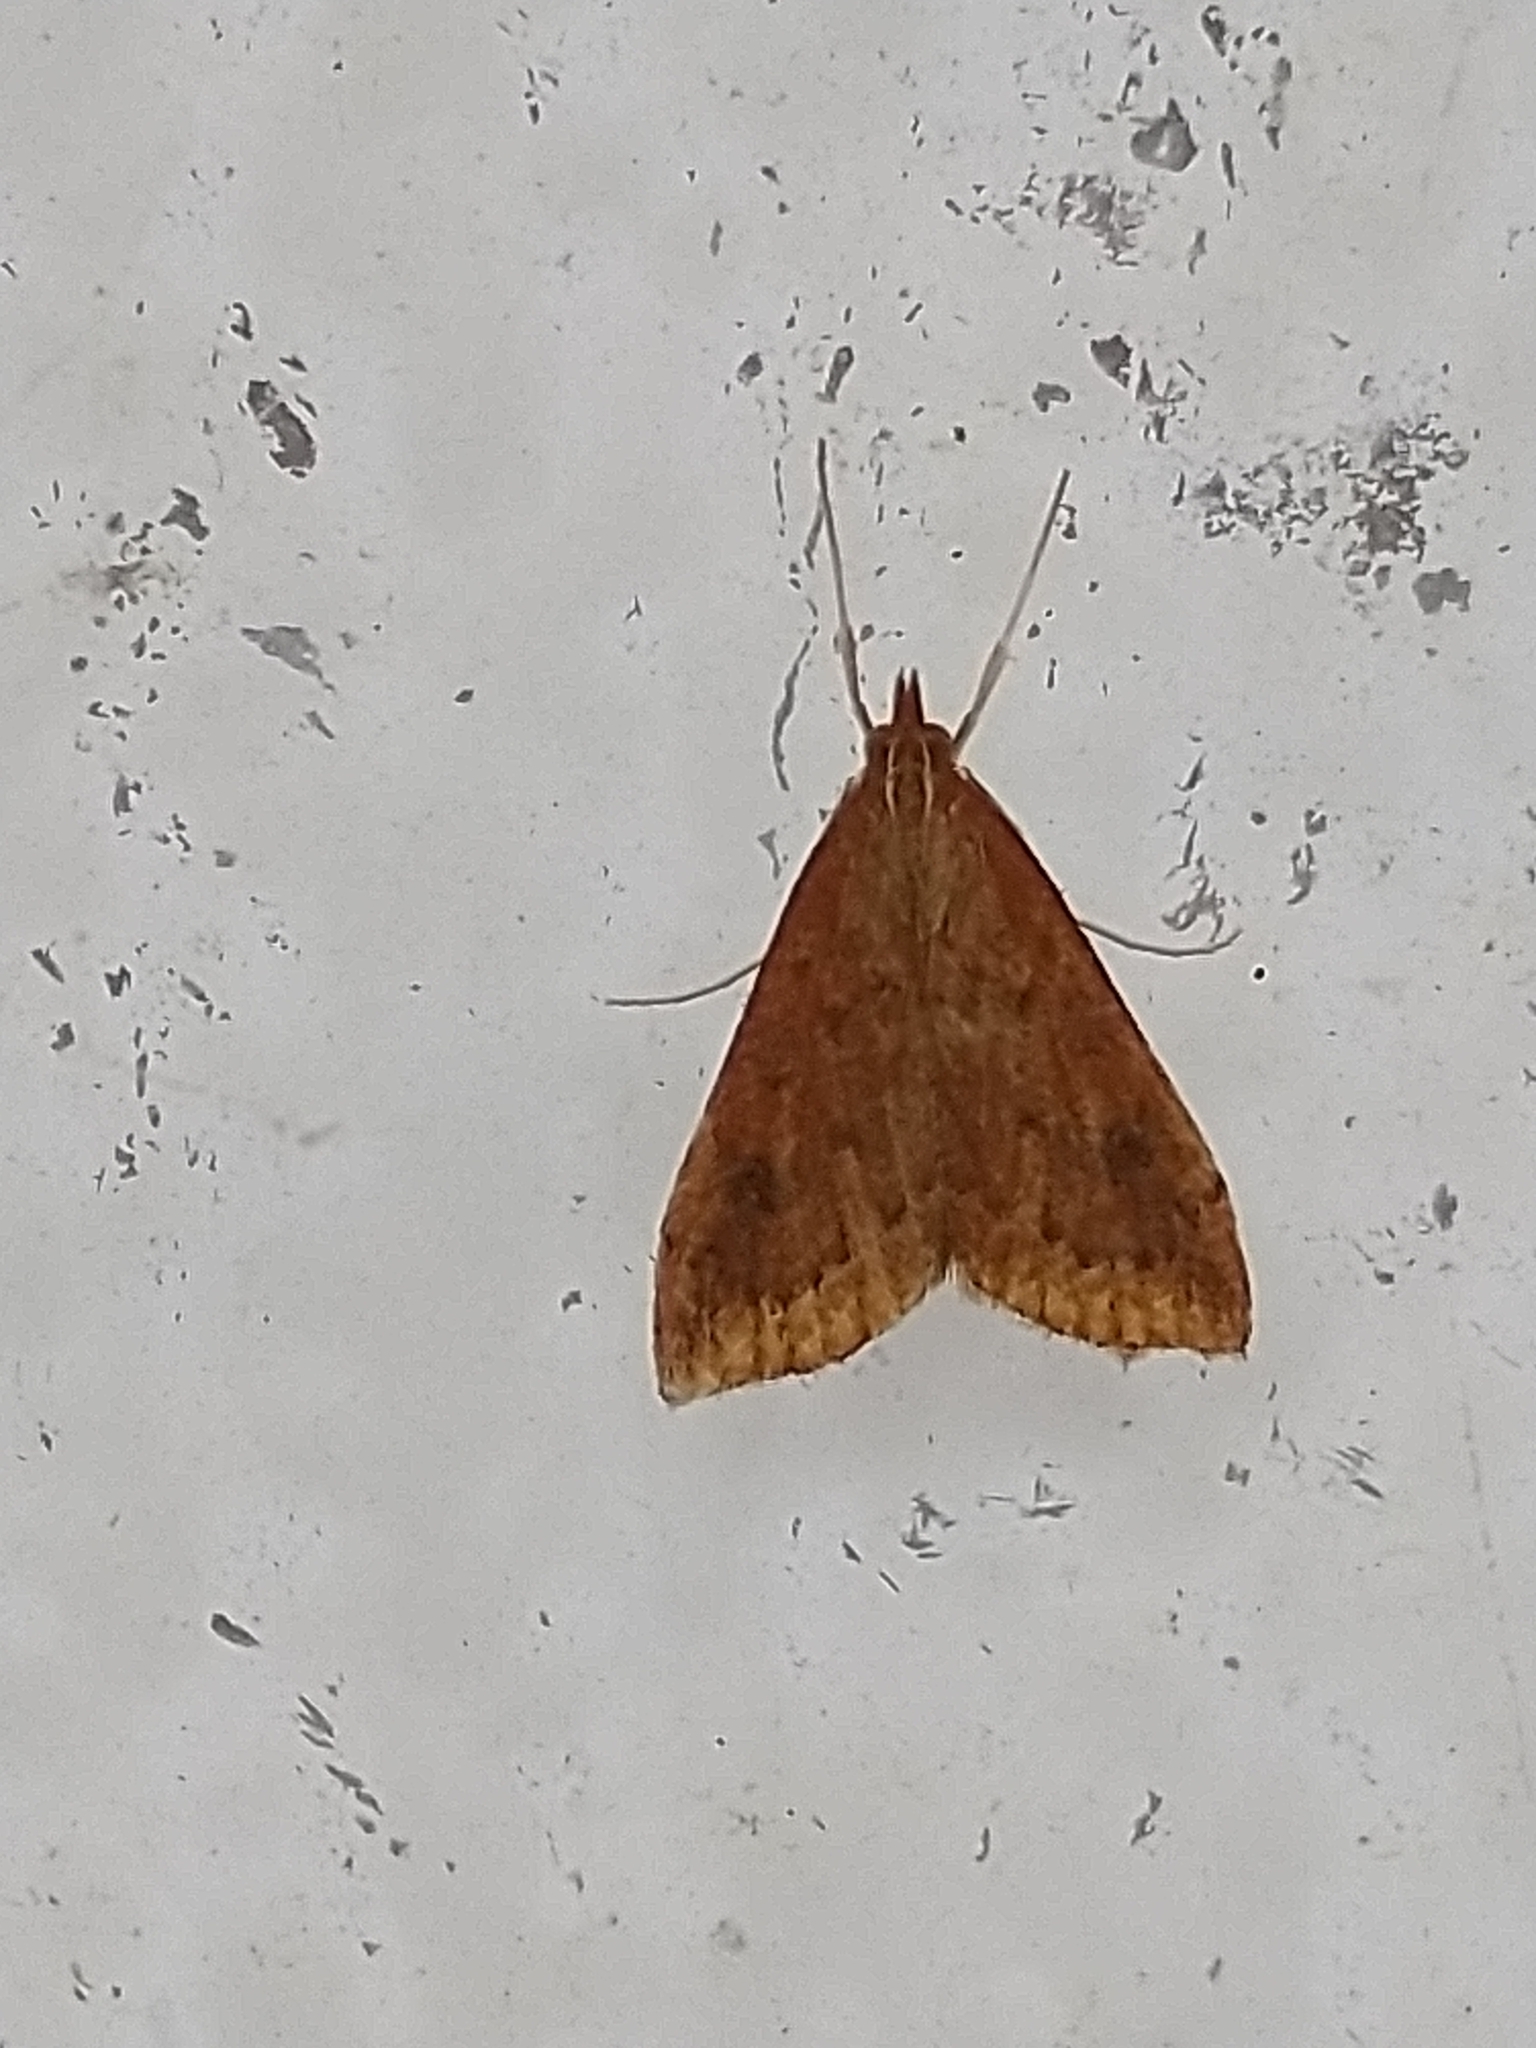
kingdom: Animalia
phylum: Arthropoda
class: Insecta
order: Lepidoptera
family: Crambidae
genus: Udea
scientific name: Udea ferrugalis
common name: Rusty dot
